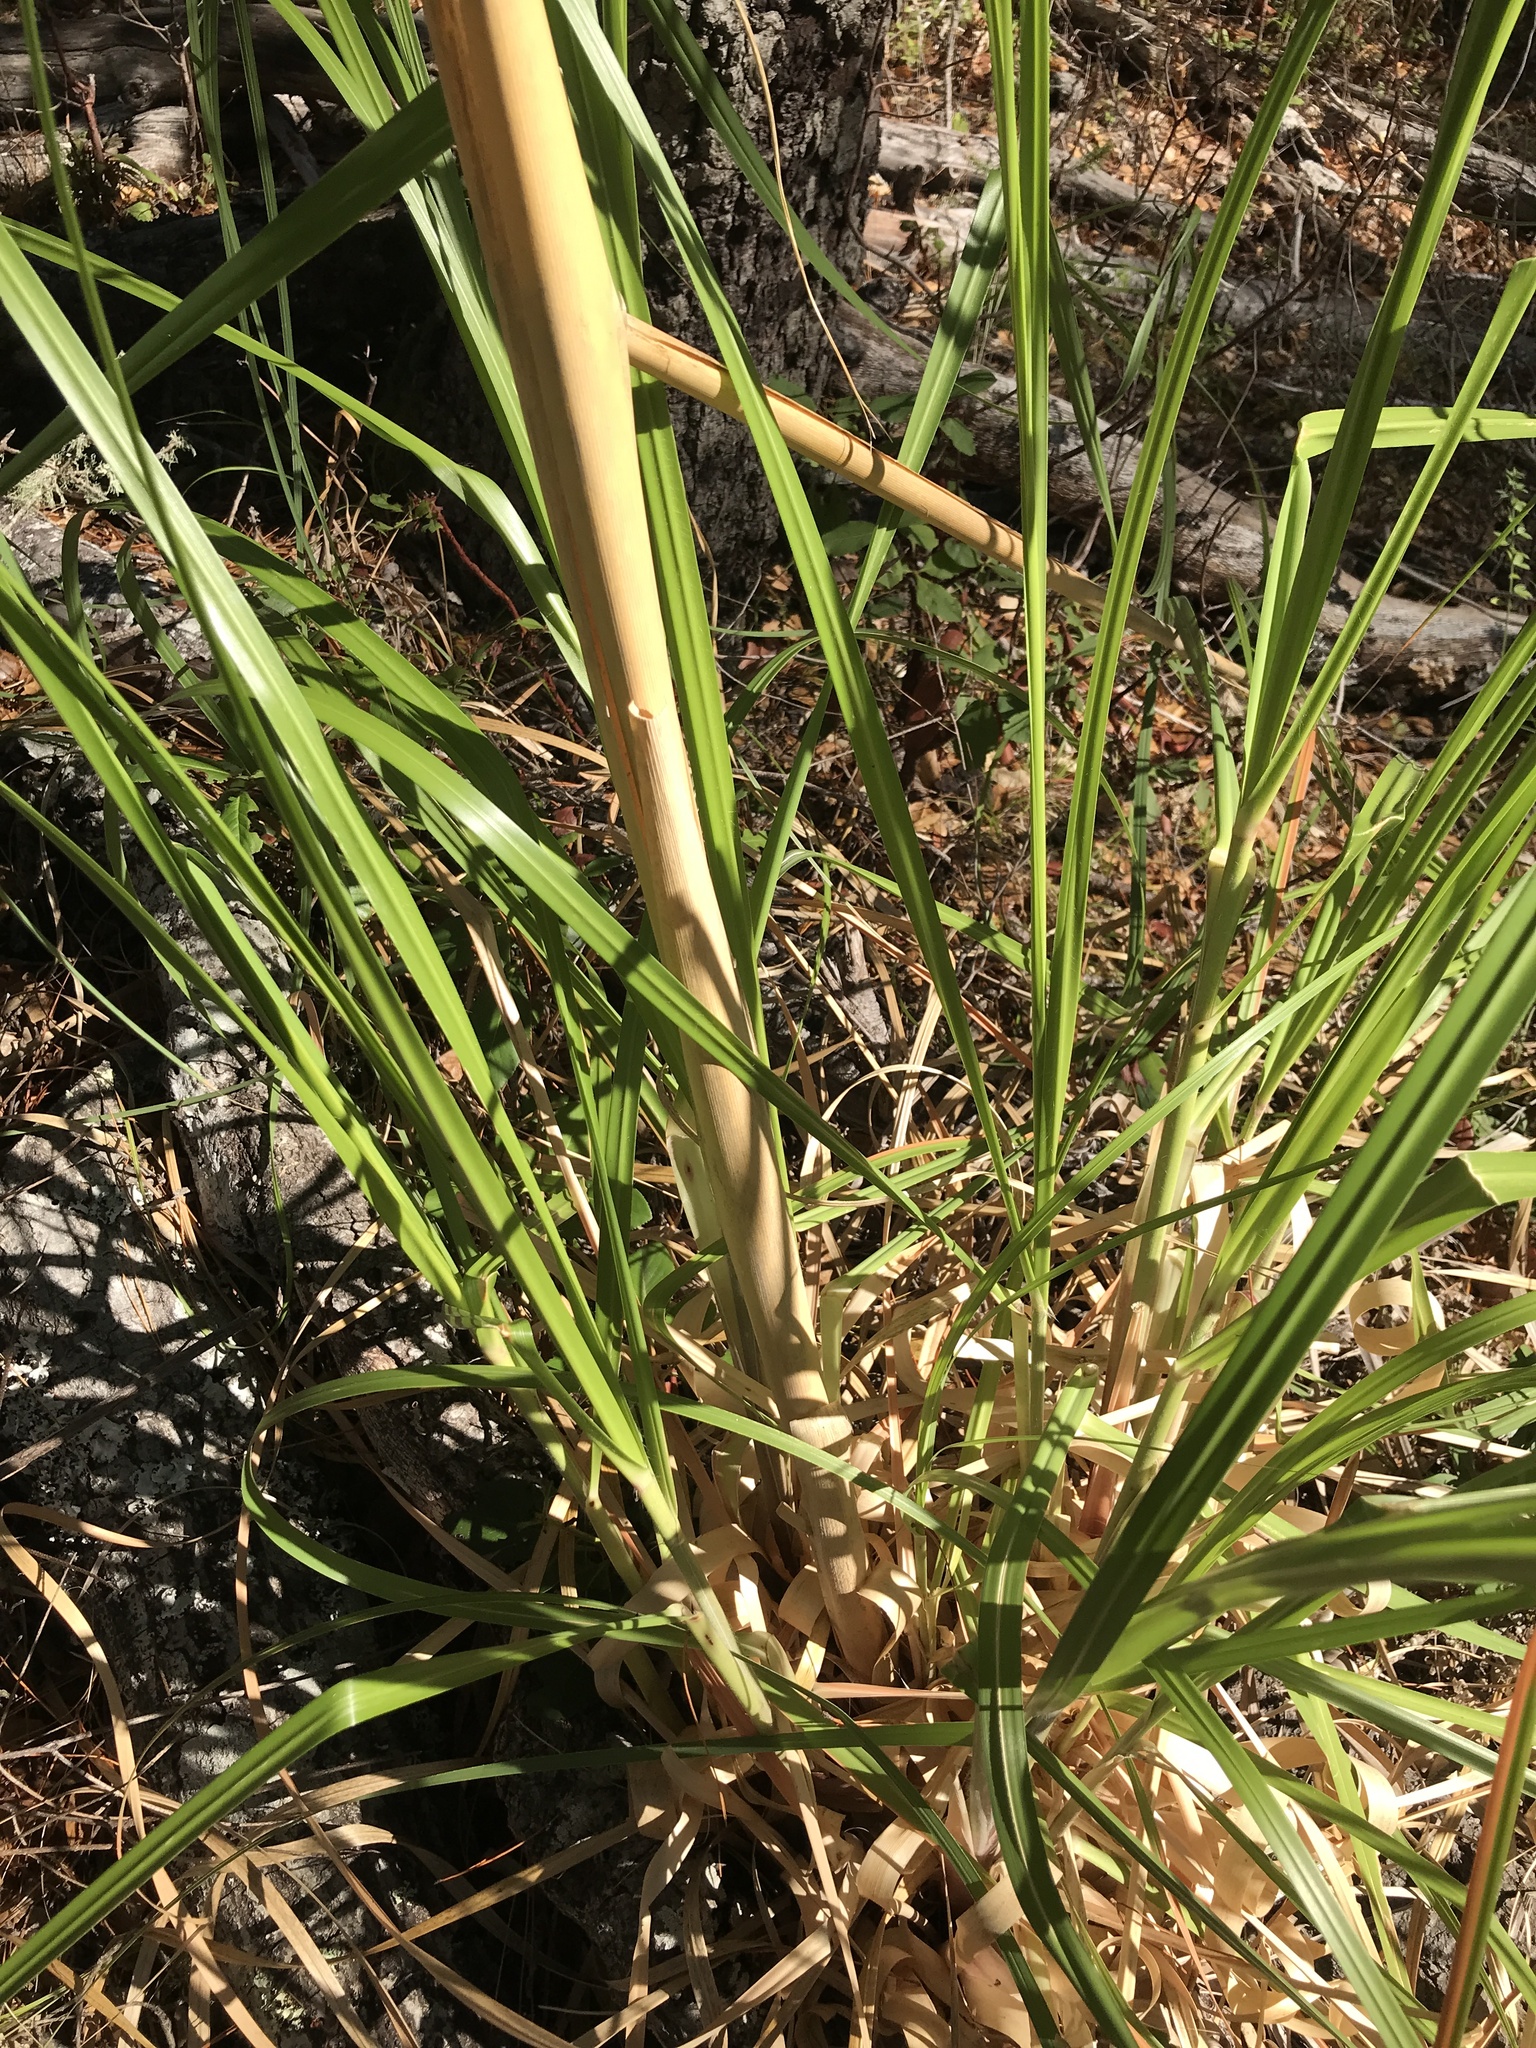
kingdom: Plantae
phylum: Tracheophyta
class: Liliopsida
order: Poales
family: Poaceae
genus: Cortaderia
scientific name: Cortaderia jubata
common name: Purple pampas grass
